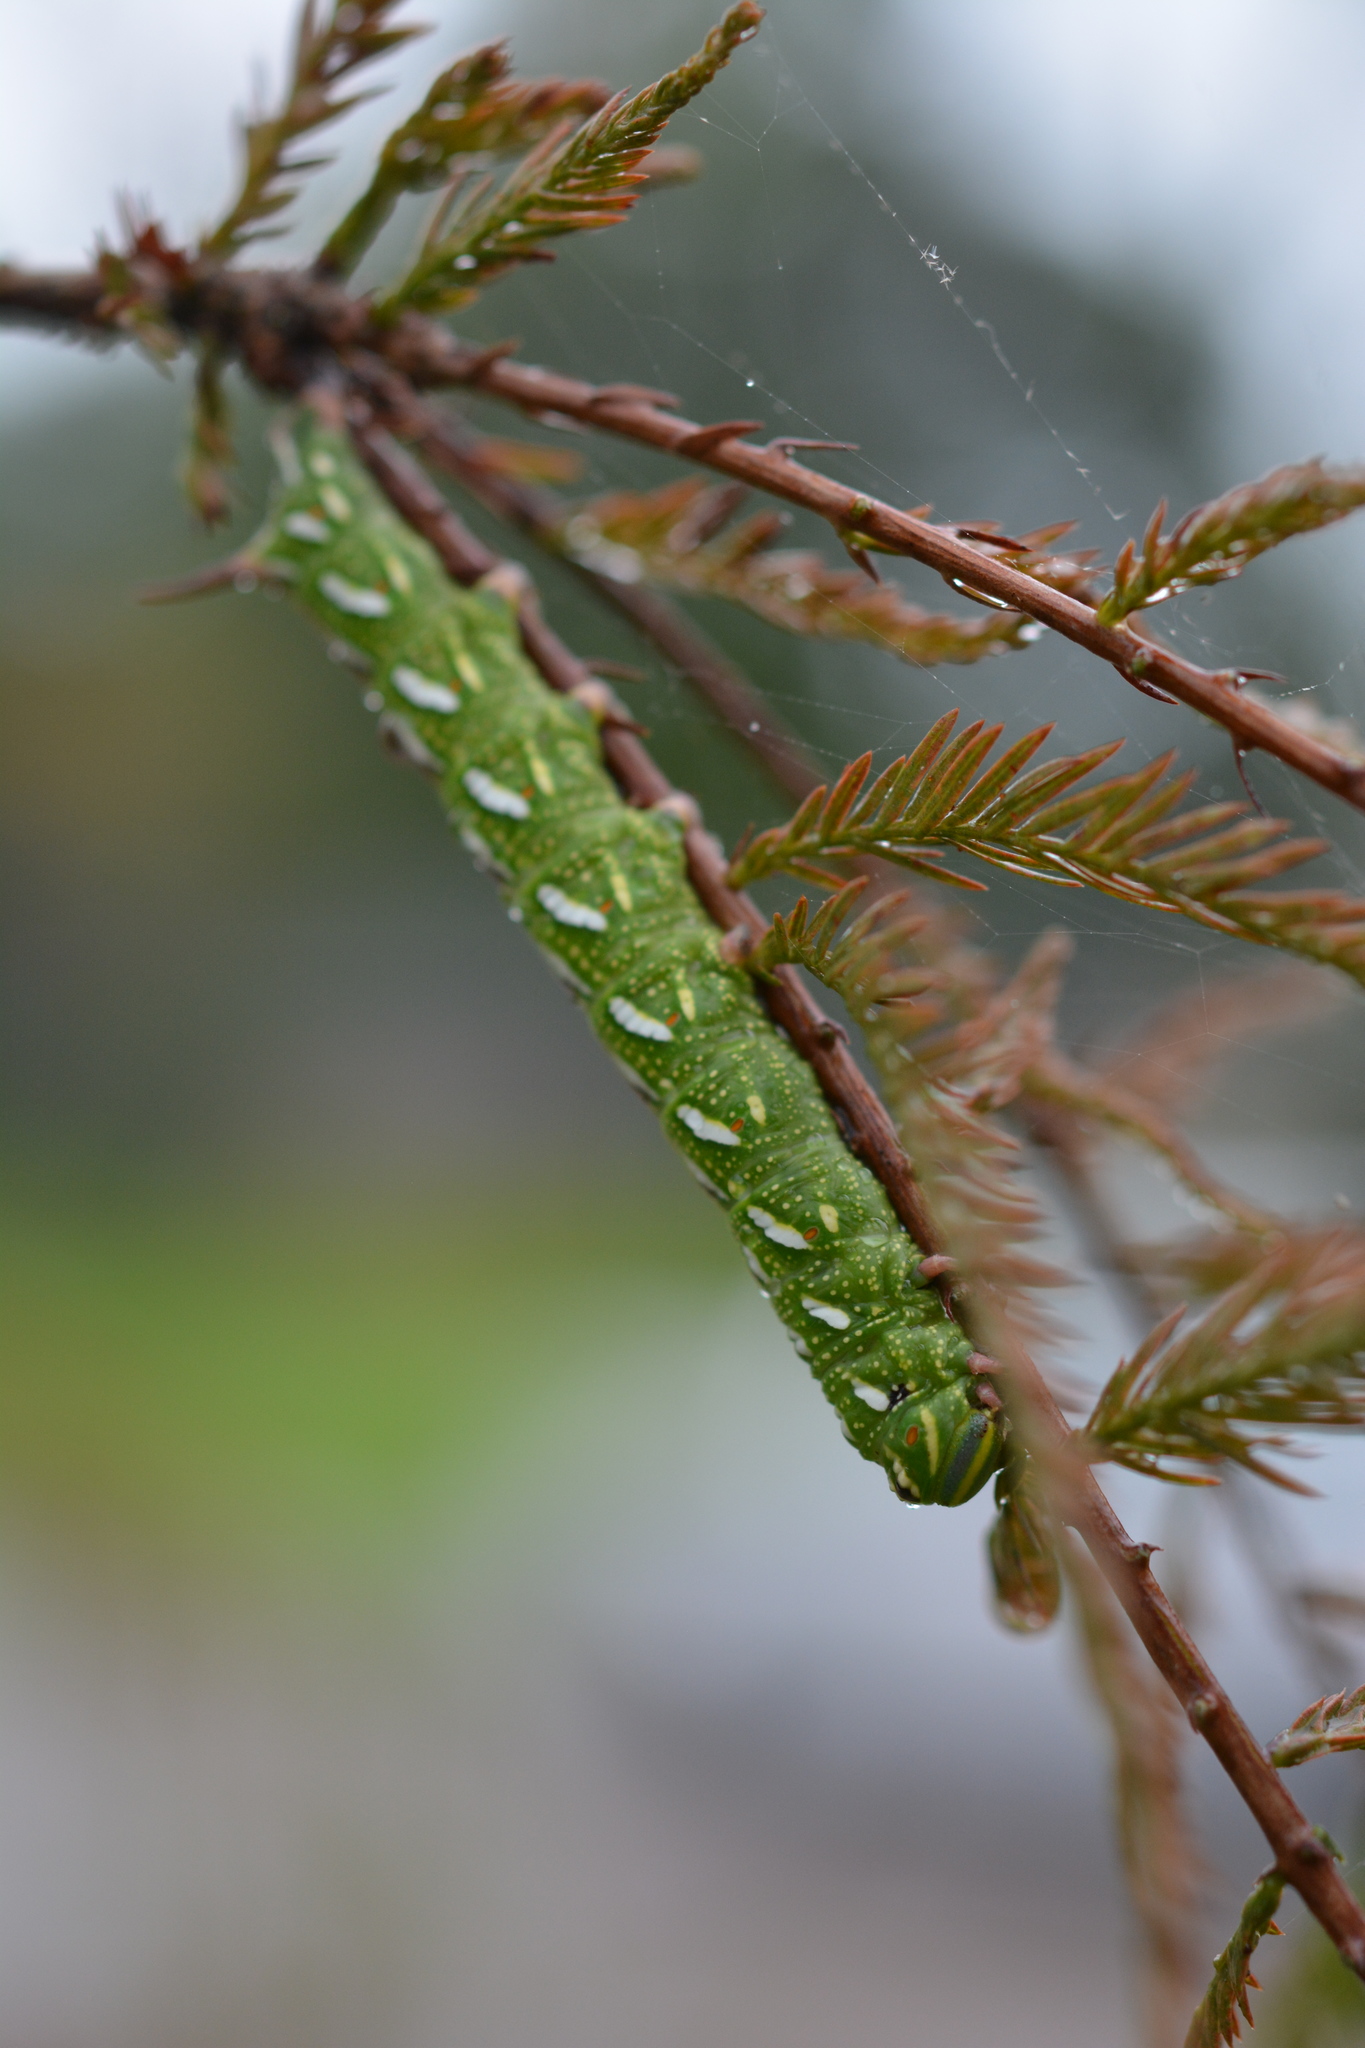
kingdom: Animalia
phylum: Arthropoda
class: Insecta
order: Lepidoptera
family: Sphingidae
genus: Isoparce
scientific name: Isoparce cupressi
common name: Cypress sphinx
